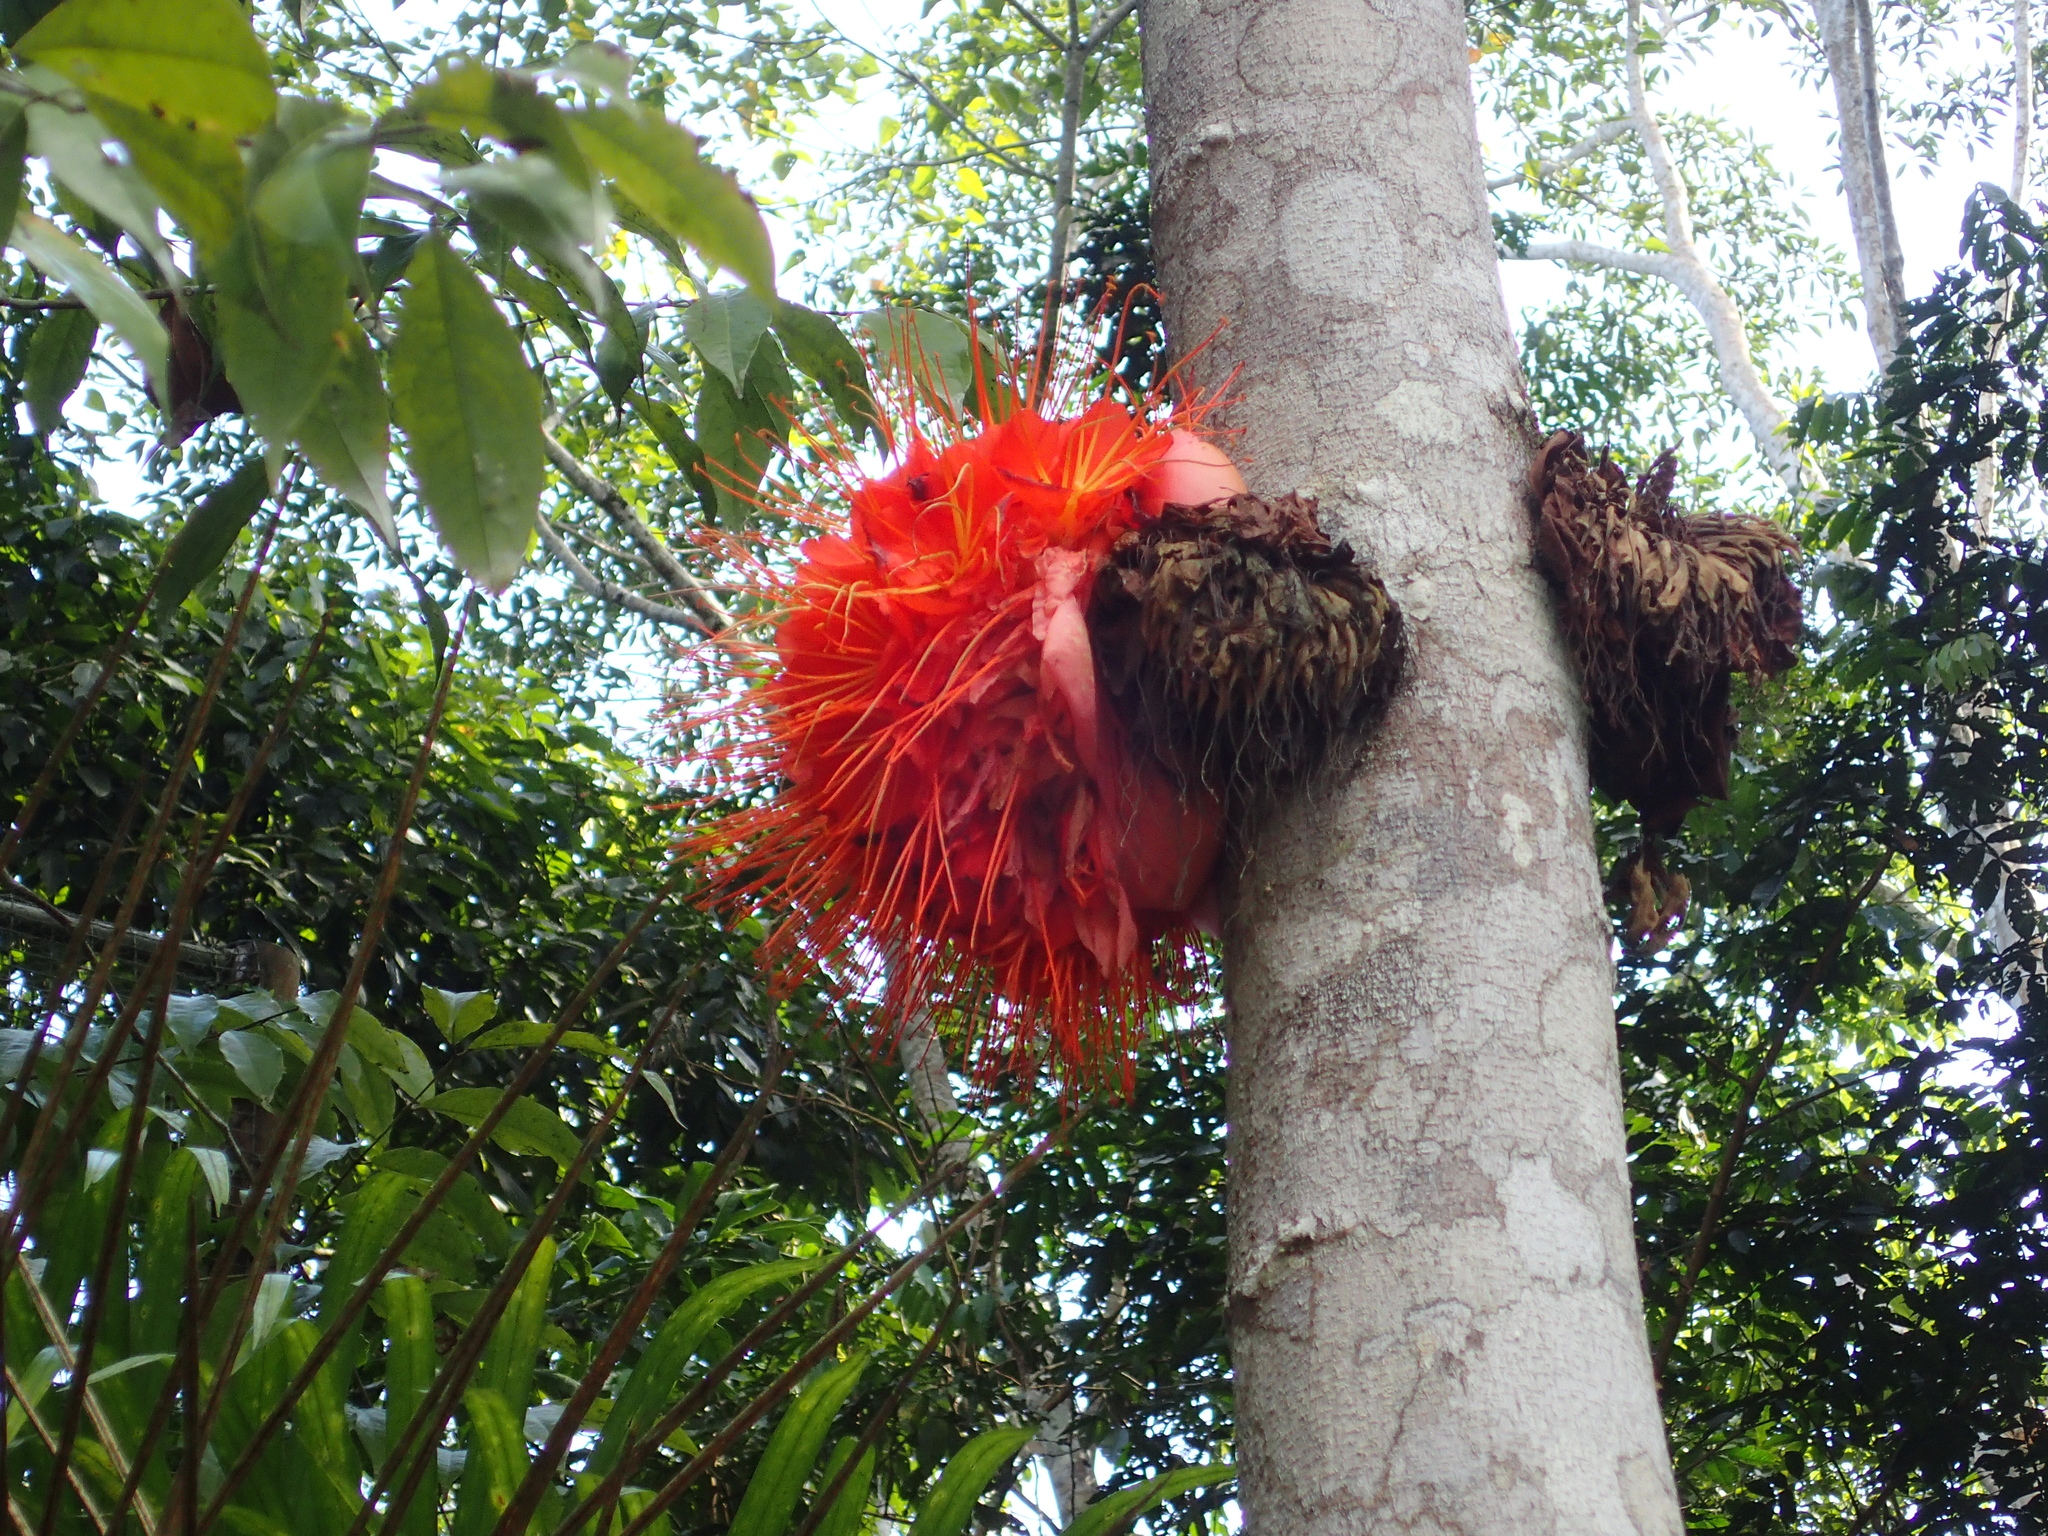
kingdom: Plantae
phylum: Tracheophyta
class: Magnoliopsida
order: Fabales
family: Fabaceae
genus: Brownea
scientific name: Brownea macrophylla
